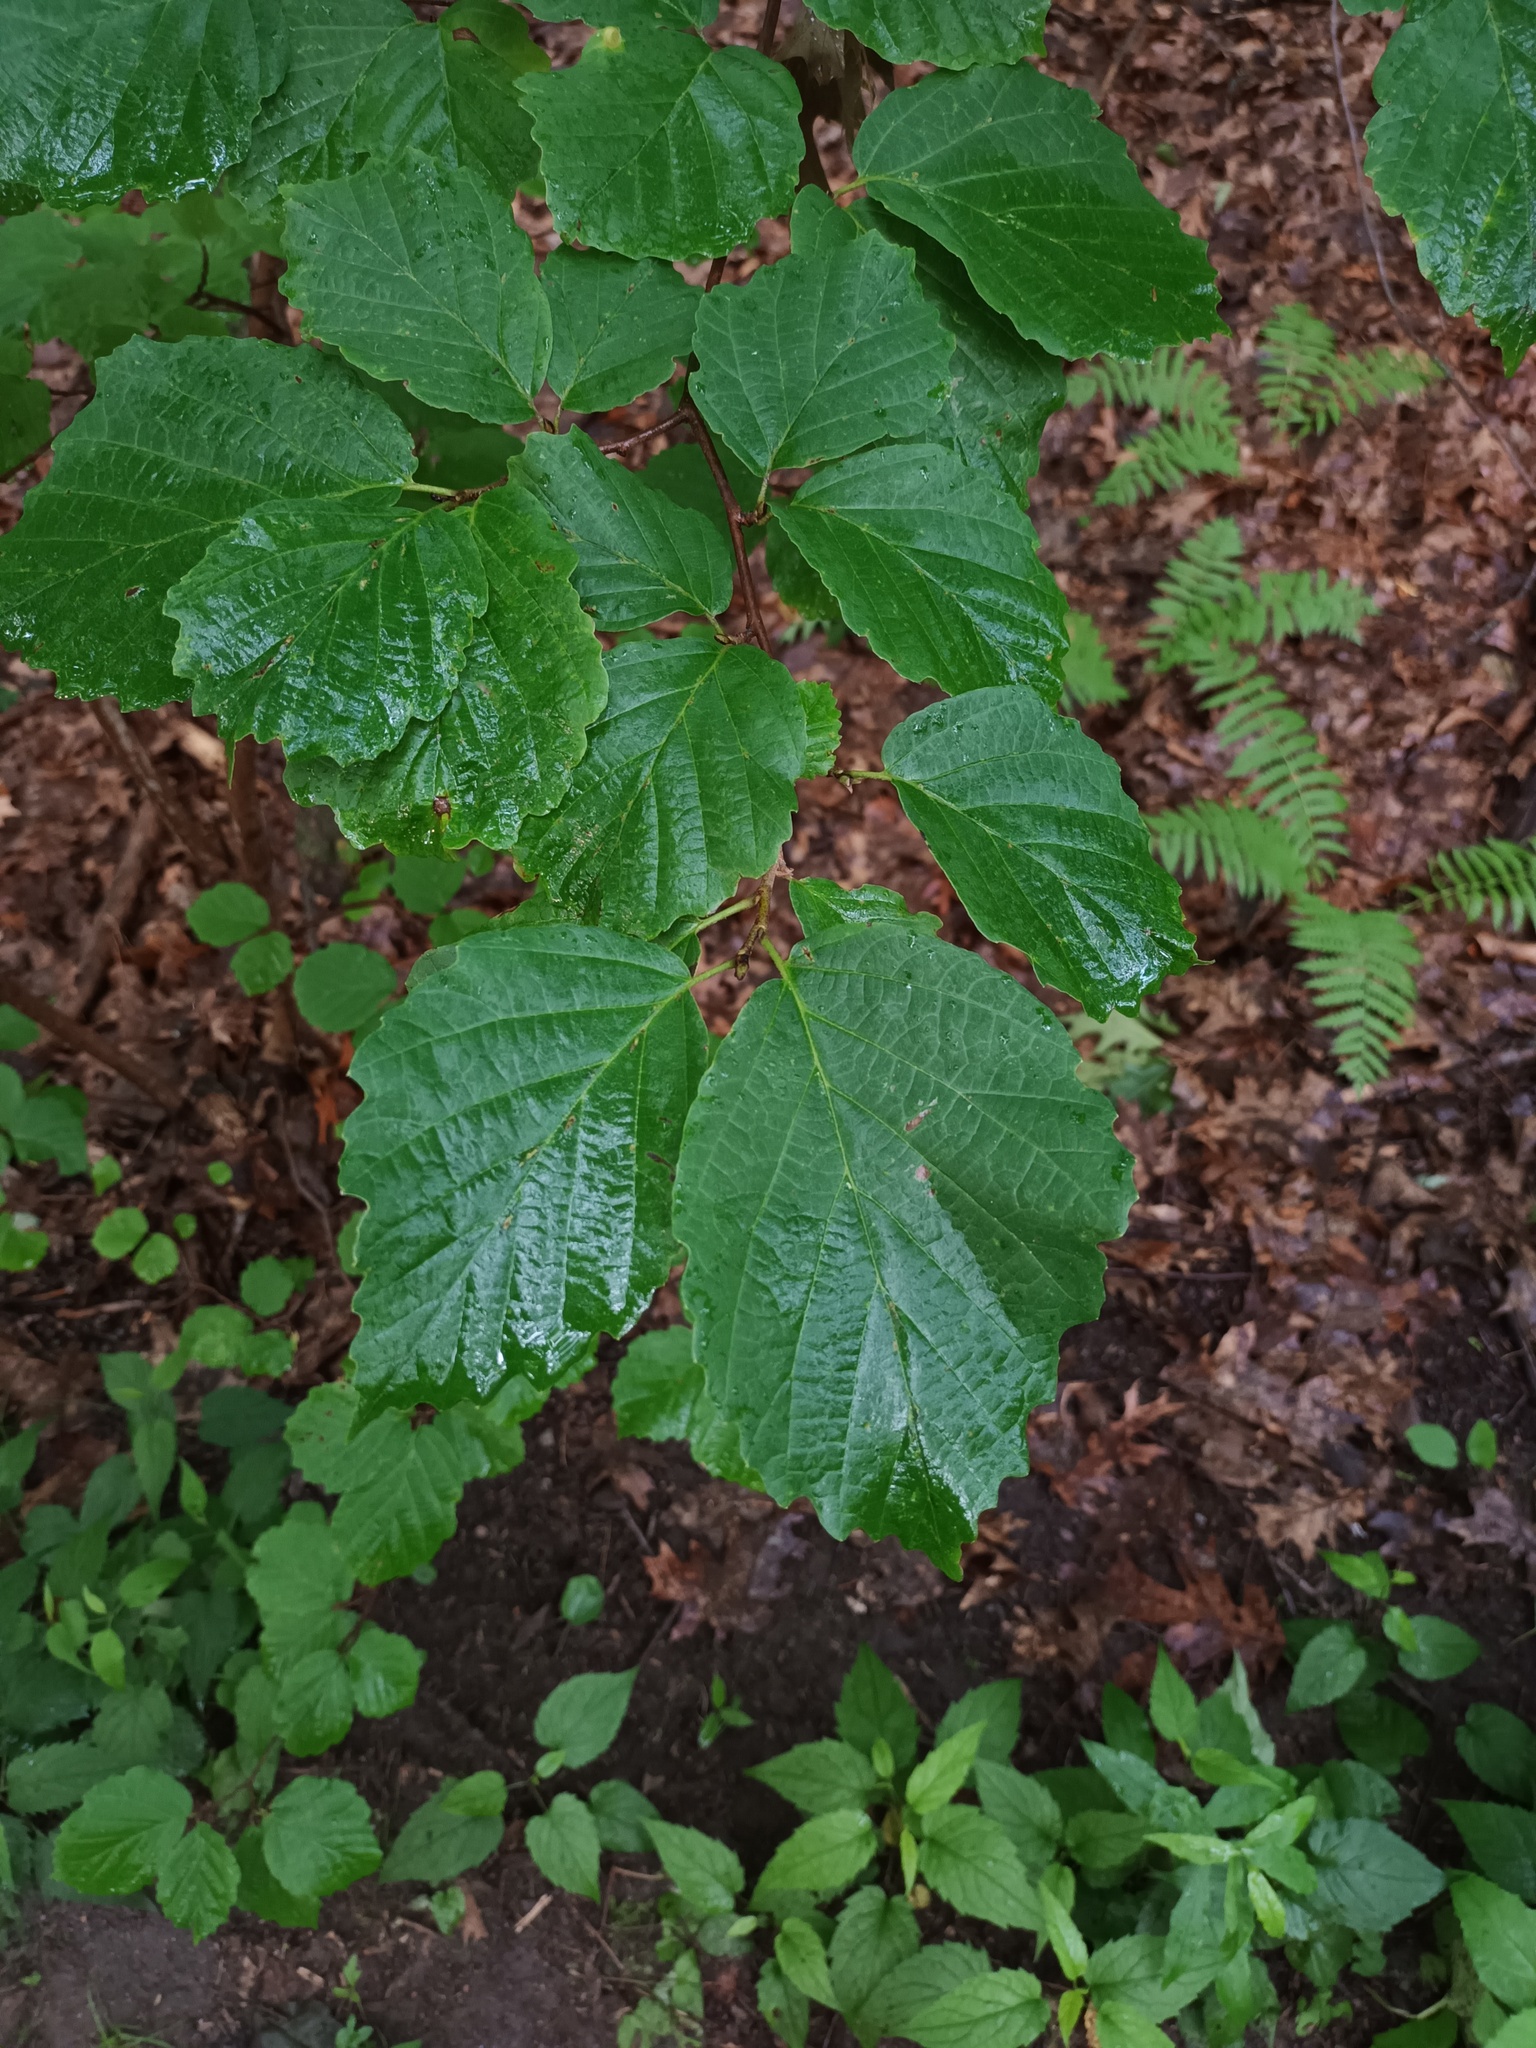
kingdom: Plantae
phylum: Tracheophyta
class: Magnoliopsida
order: Saxifragales
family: Hamamelidaceae
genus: Hamamelis
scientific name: Hamamelis virginiana
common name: Witch-hazel
